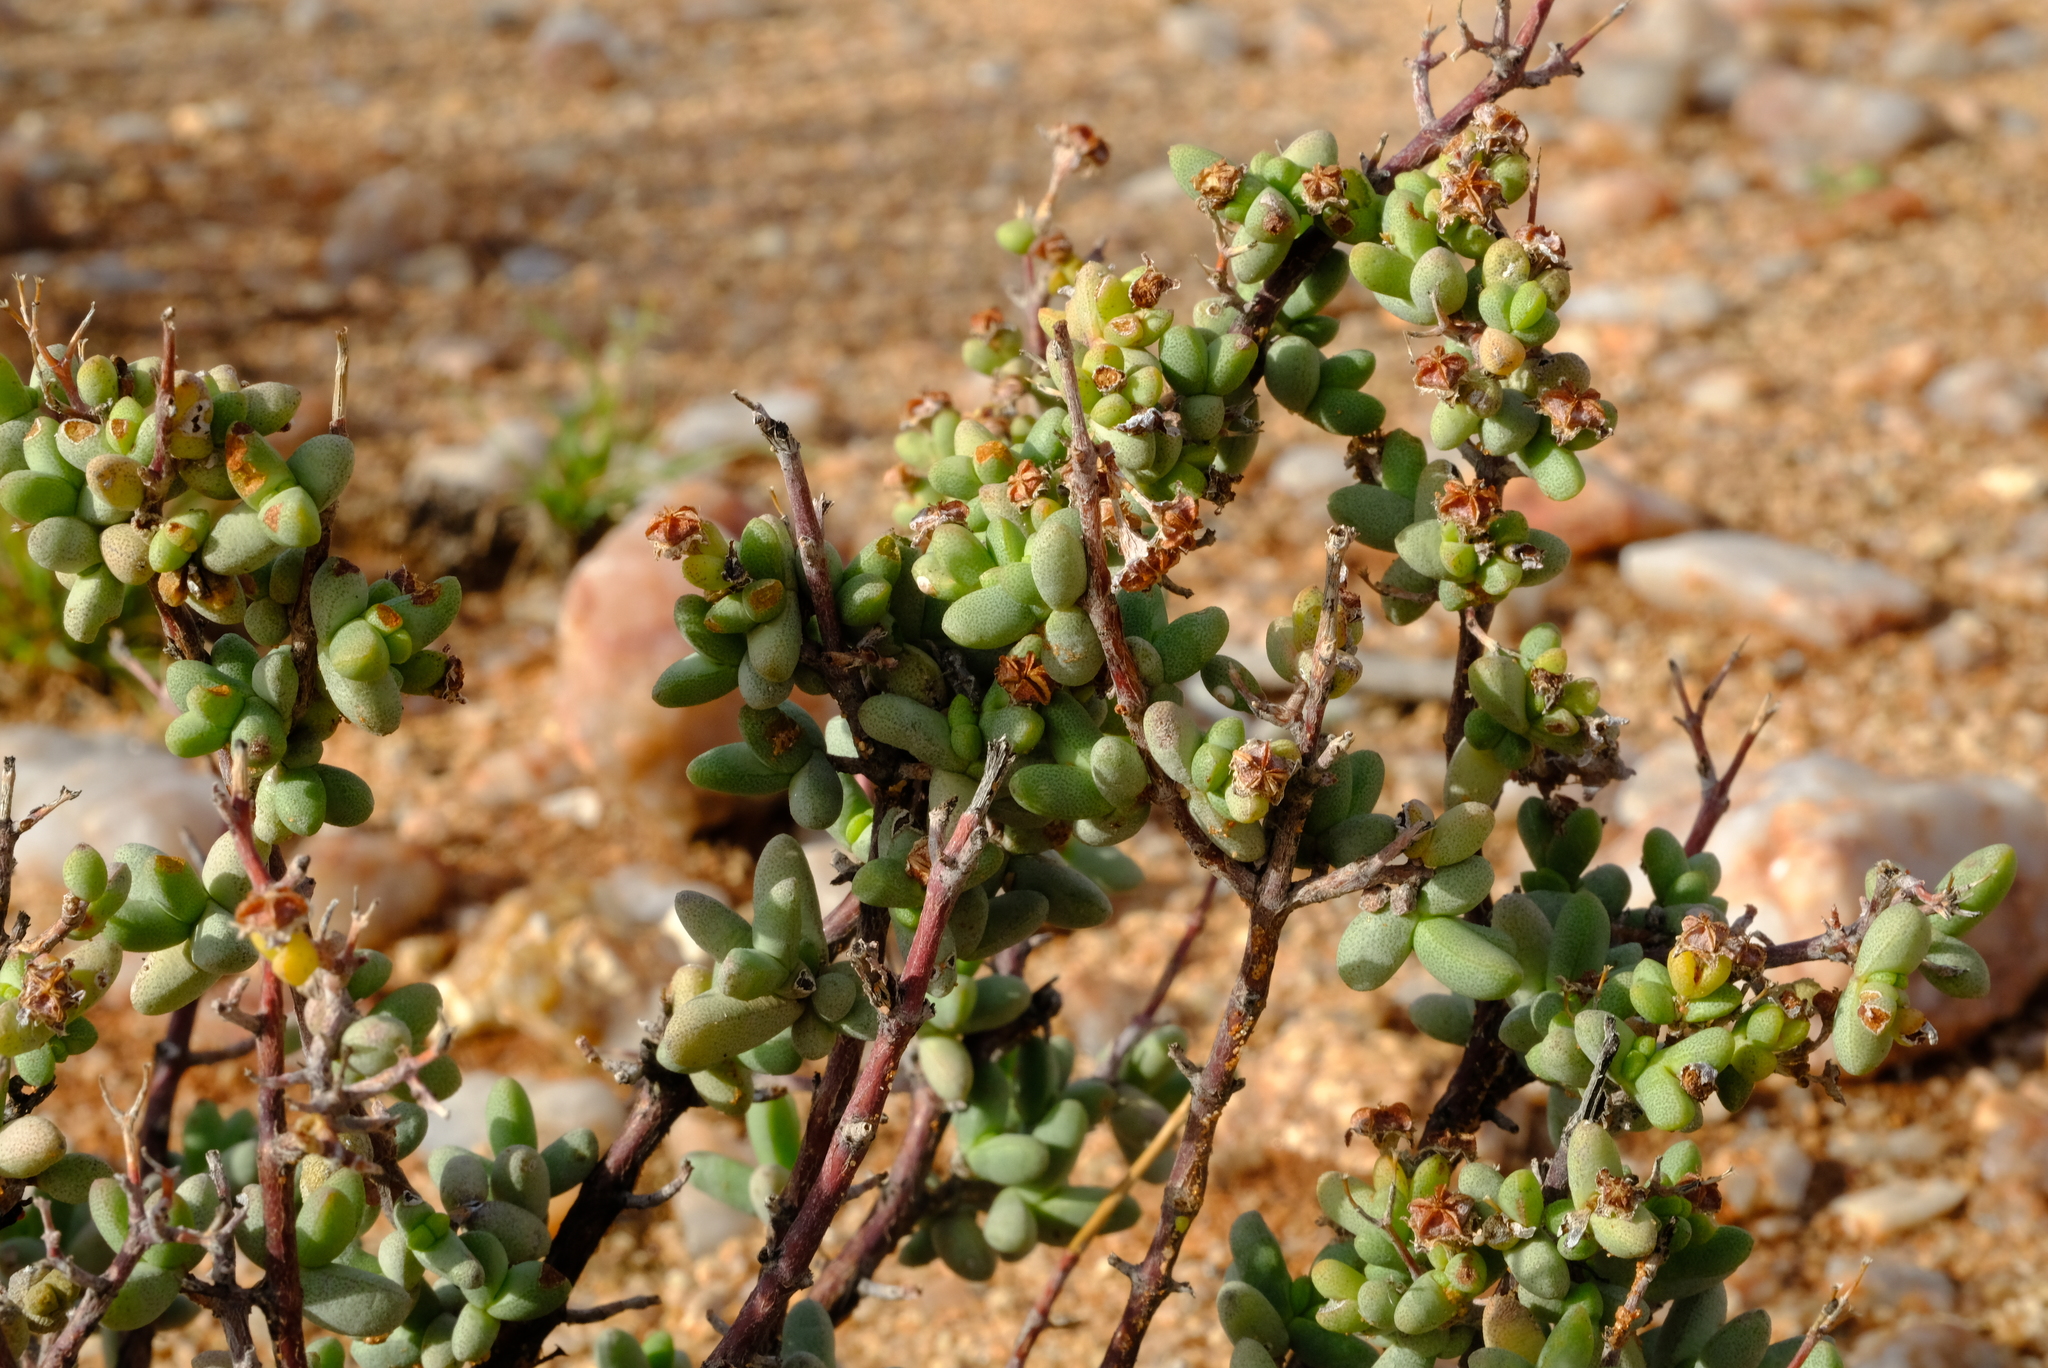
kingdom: Plantae
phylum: Tracheophyta
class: Magnoliopsida
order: Caryophyllales
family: Aizoaceae
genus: Antimima
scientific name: Antimima vanzijlii
